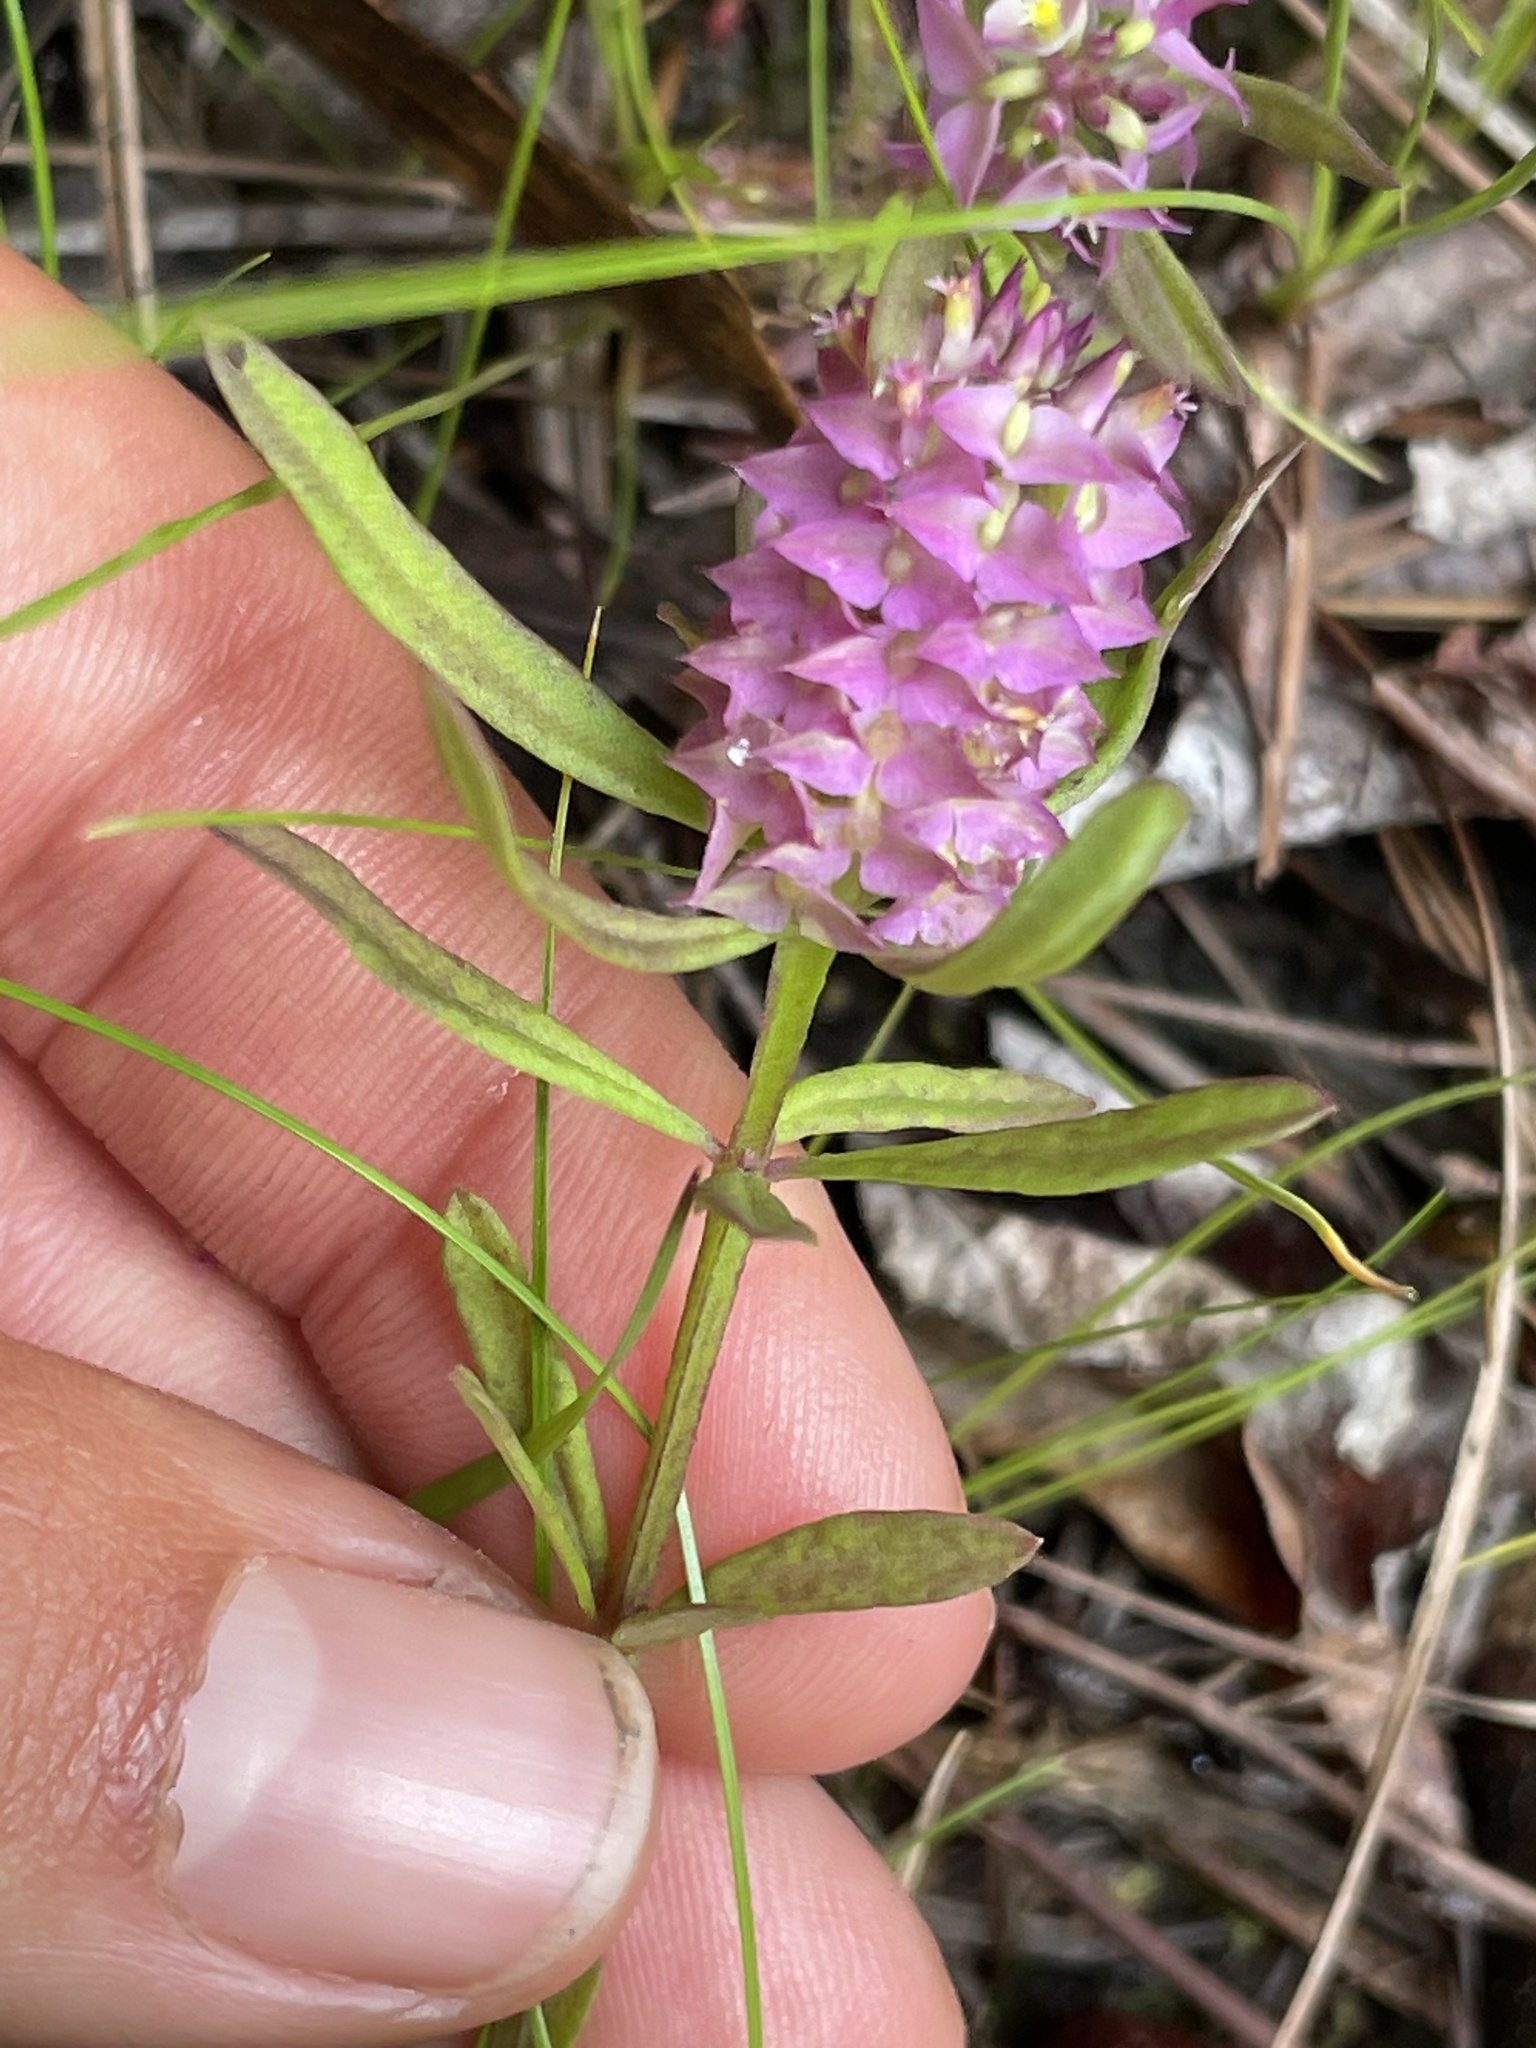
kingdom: Plantae
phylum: Tracheophyta
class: Magnoliopsida
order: Fabales
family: Polygalaceae
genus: Polygala
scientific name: Polygala cruciata
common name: Drumheads
